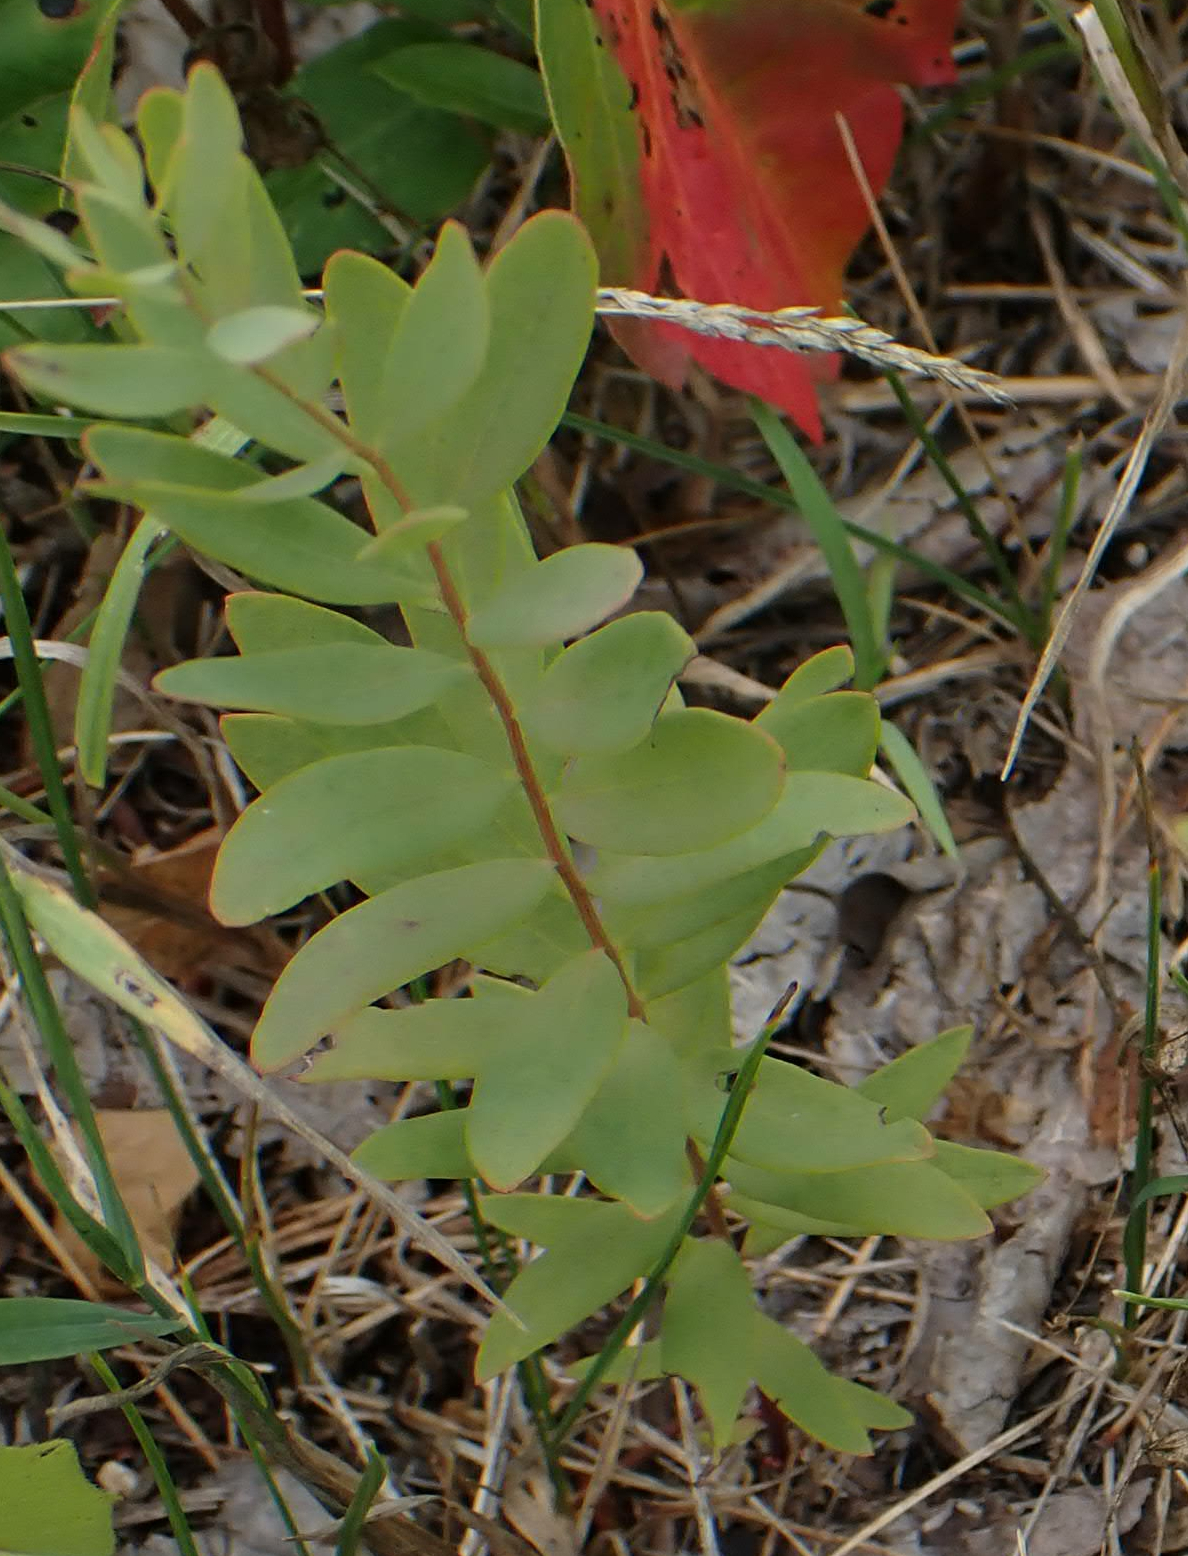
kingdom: Plantae
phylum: Tracheophyta
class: Magnoliopsida
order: Santalales
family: Comandraceae
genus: Comandra
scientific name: Comandra umbellata
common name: Bastard toadflax
